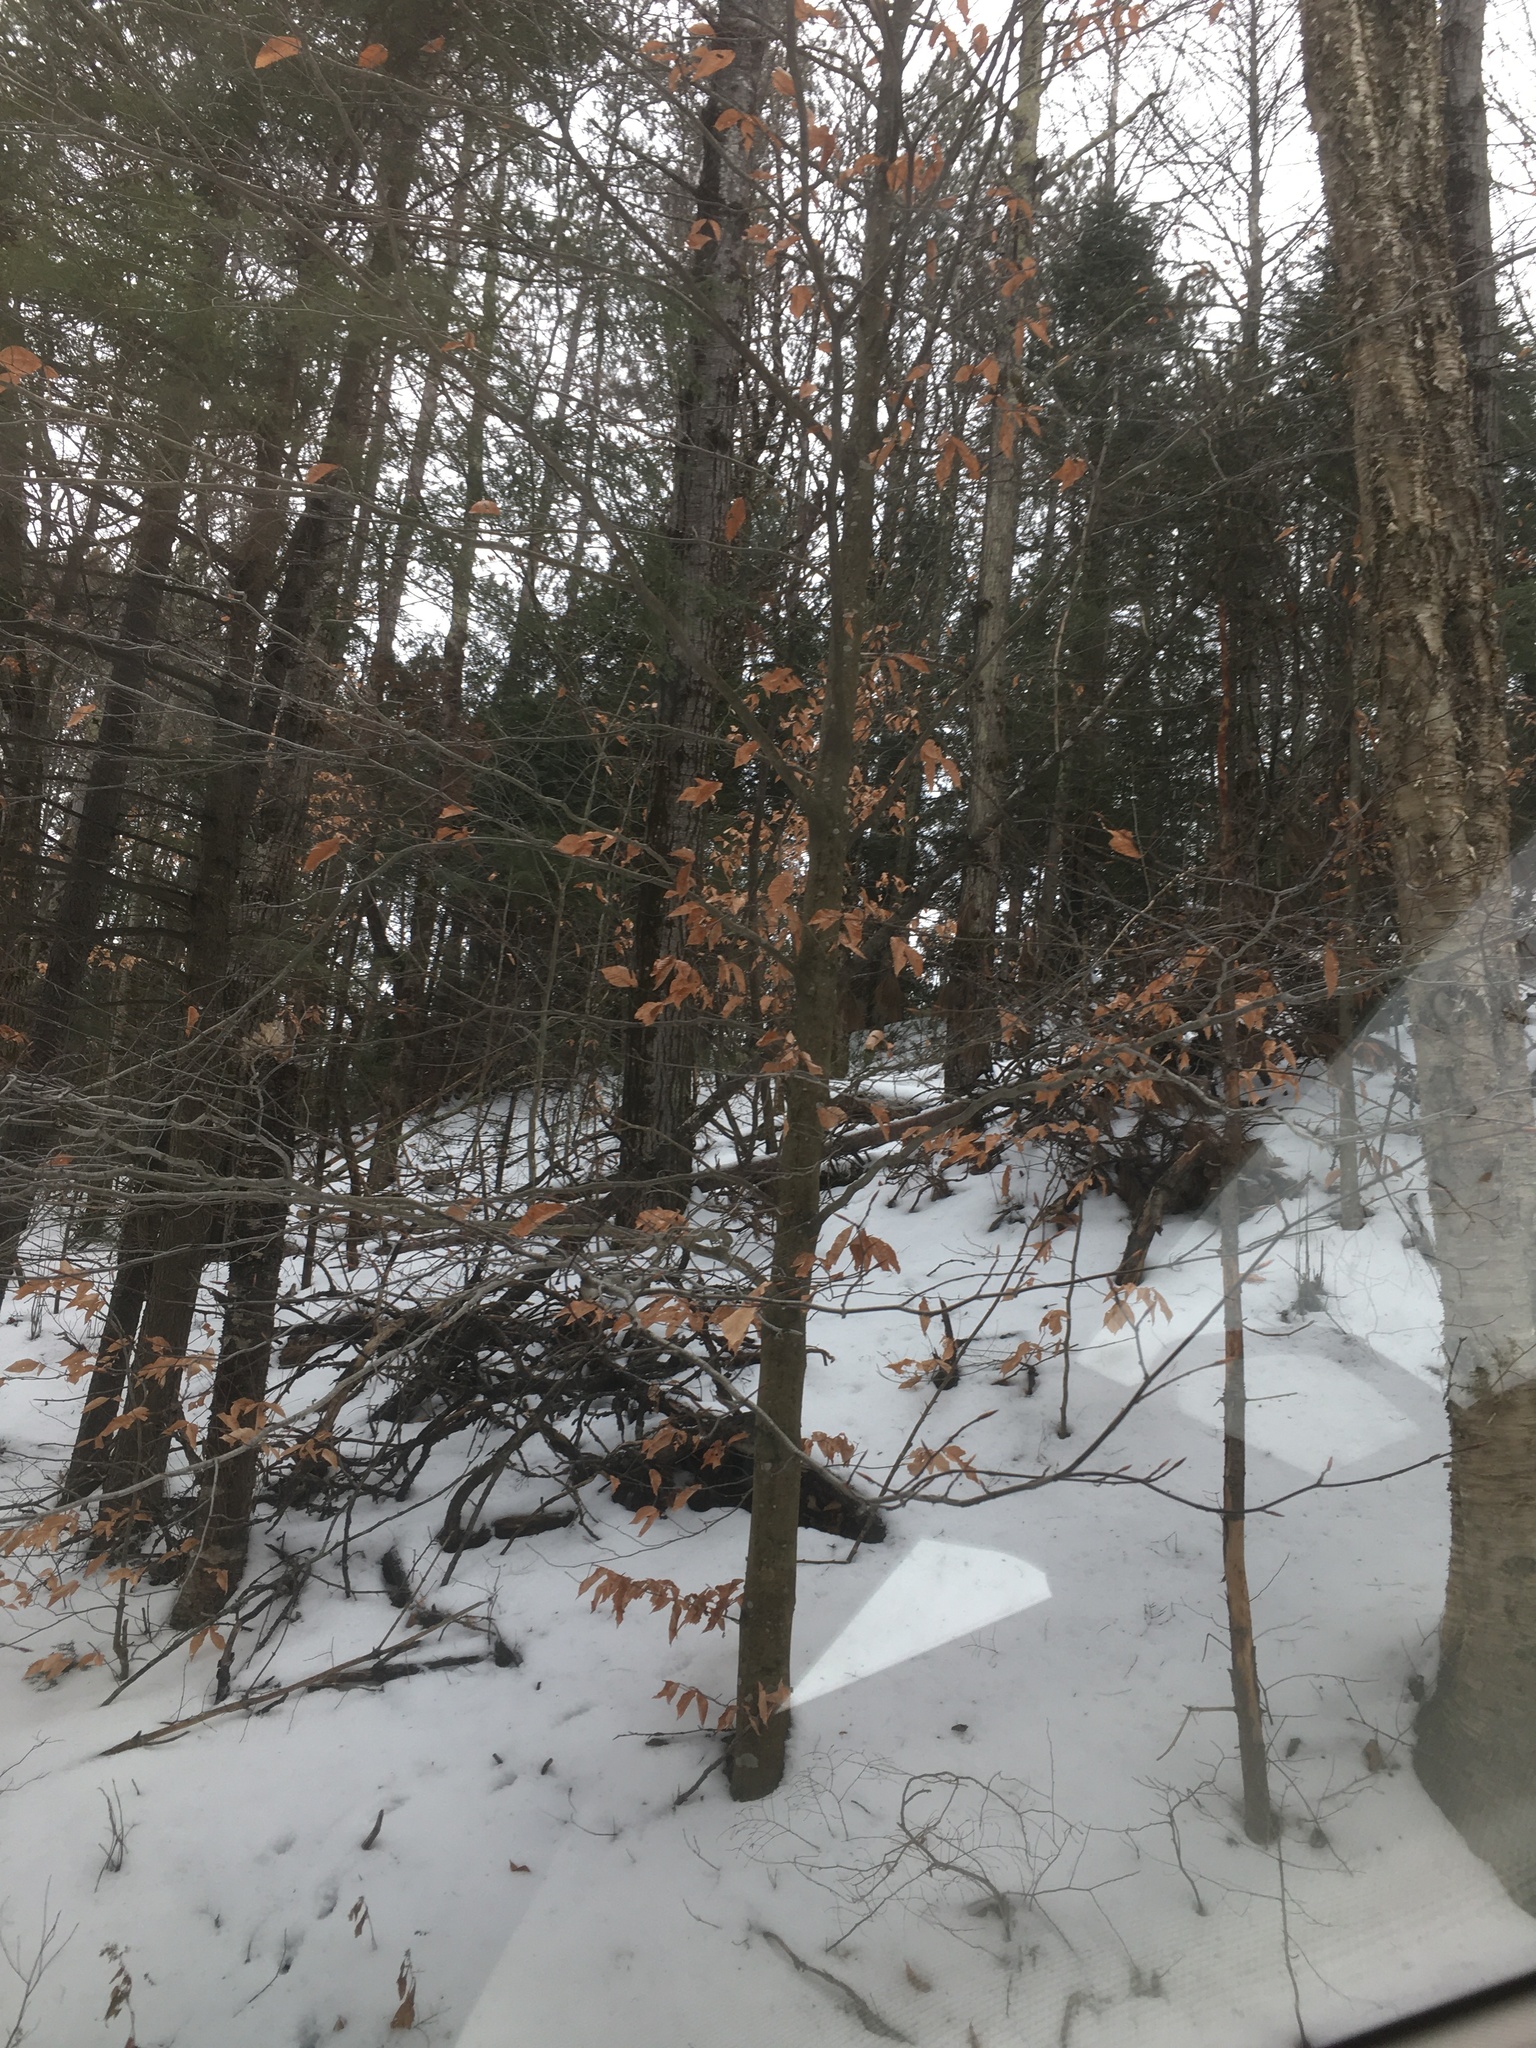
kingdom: Plantae
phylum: Tracheophyta
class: Magnoliopsida
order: Fagales
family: Fagaceae
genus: Fagus
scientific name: Fagus grandifolia
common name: American beech
